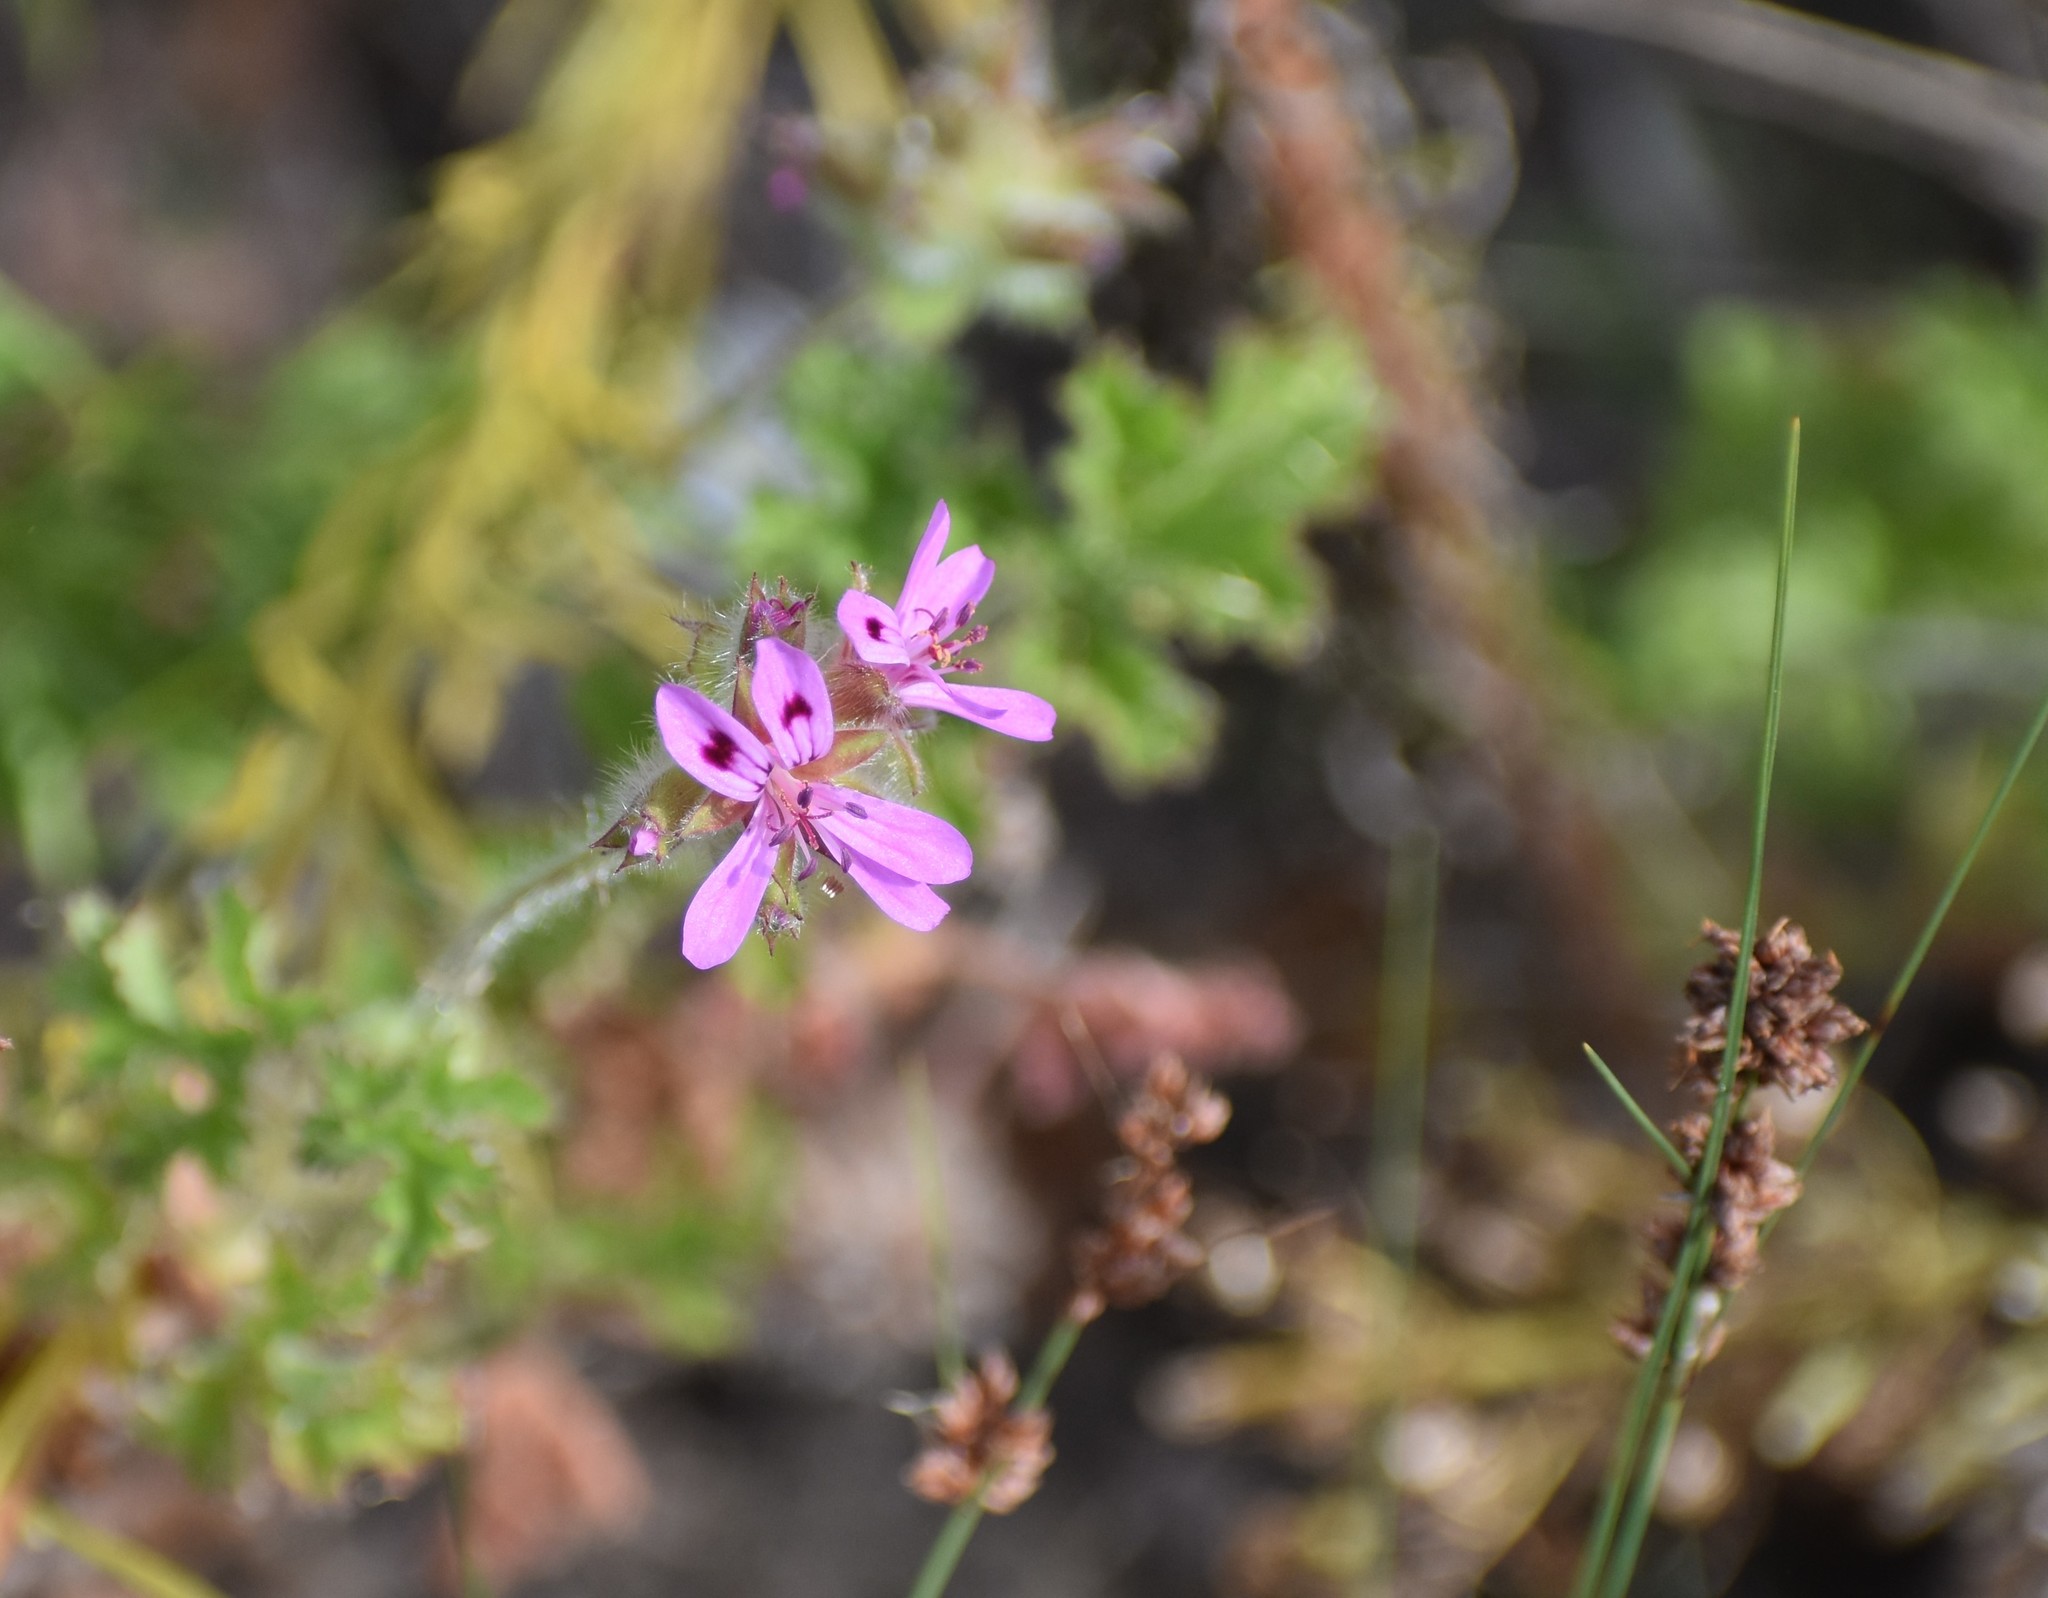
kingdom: Plantae
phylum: Tracheophyta
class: Magnoliopsida
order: Geraniales
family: Geraniaceae
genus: Pelargonium
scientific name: Pelargonium capitatum
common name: Rose scented geranium
